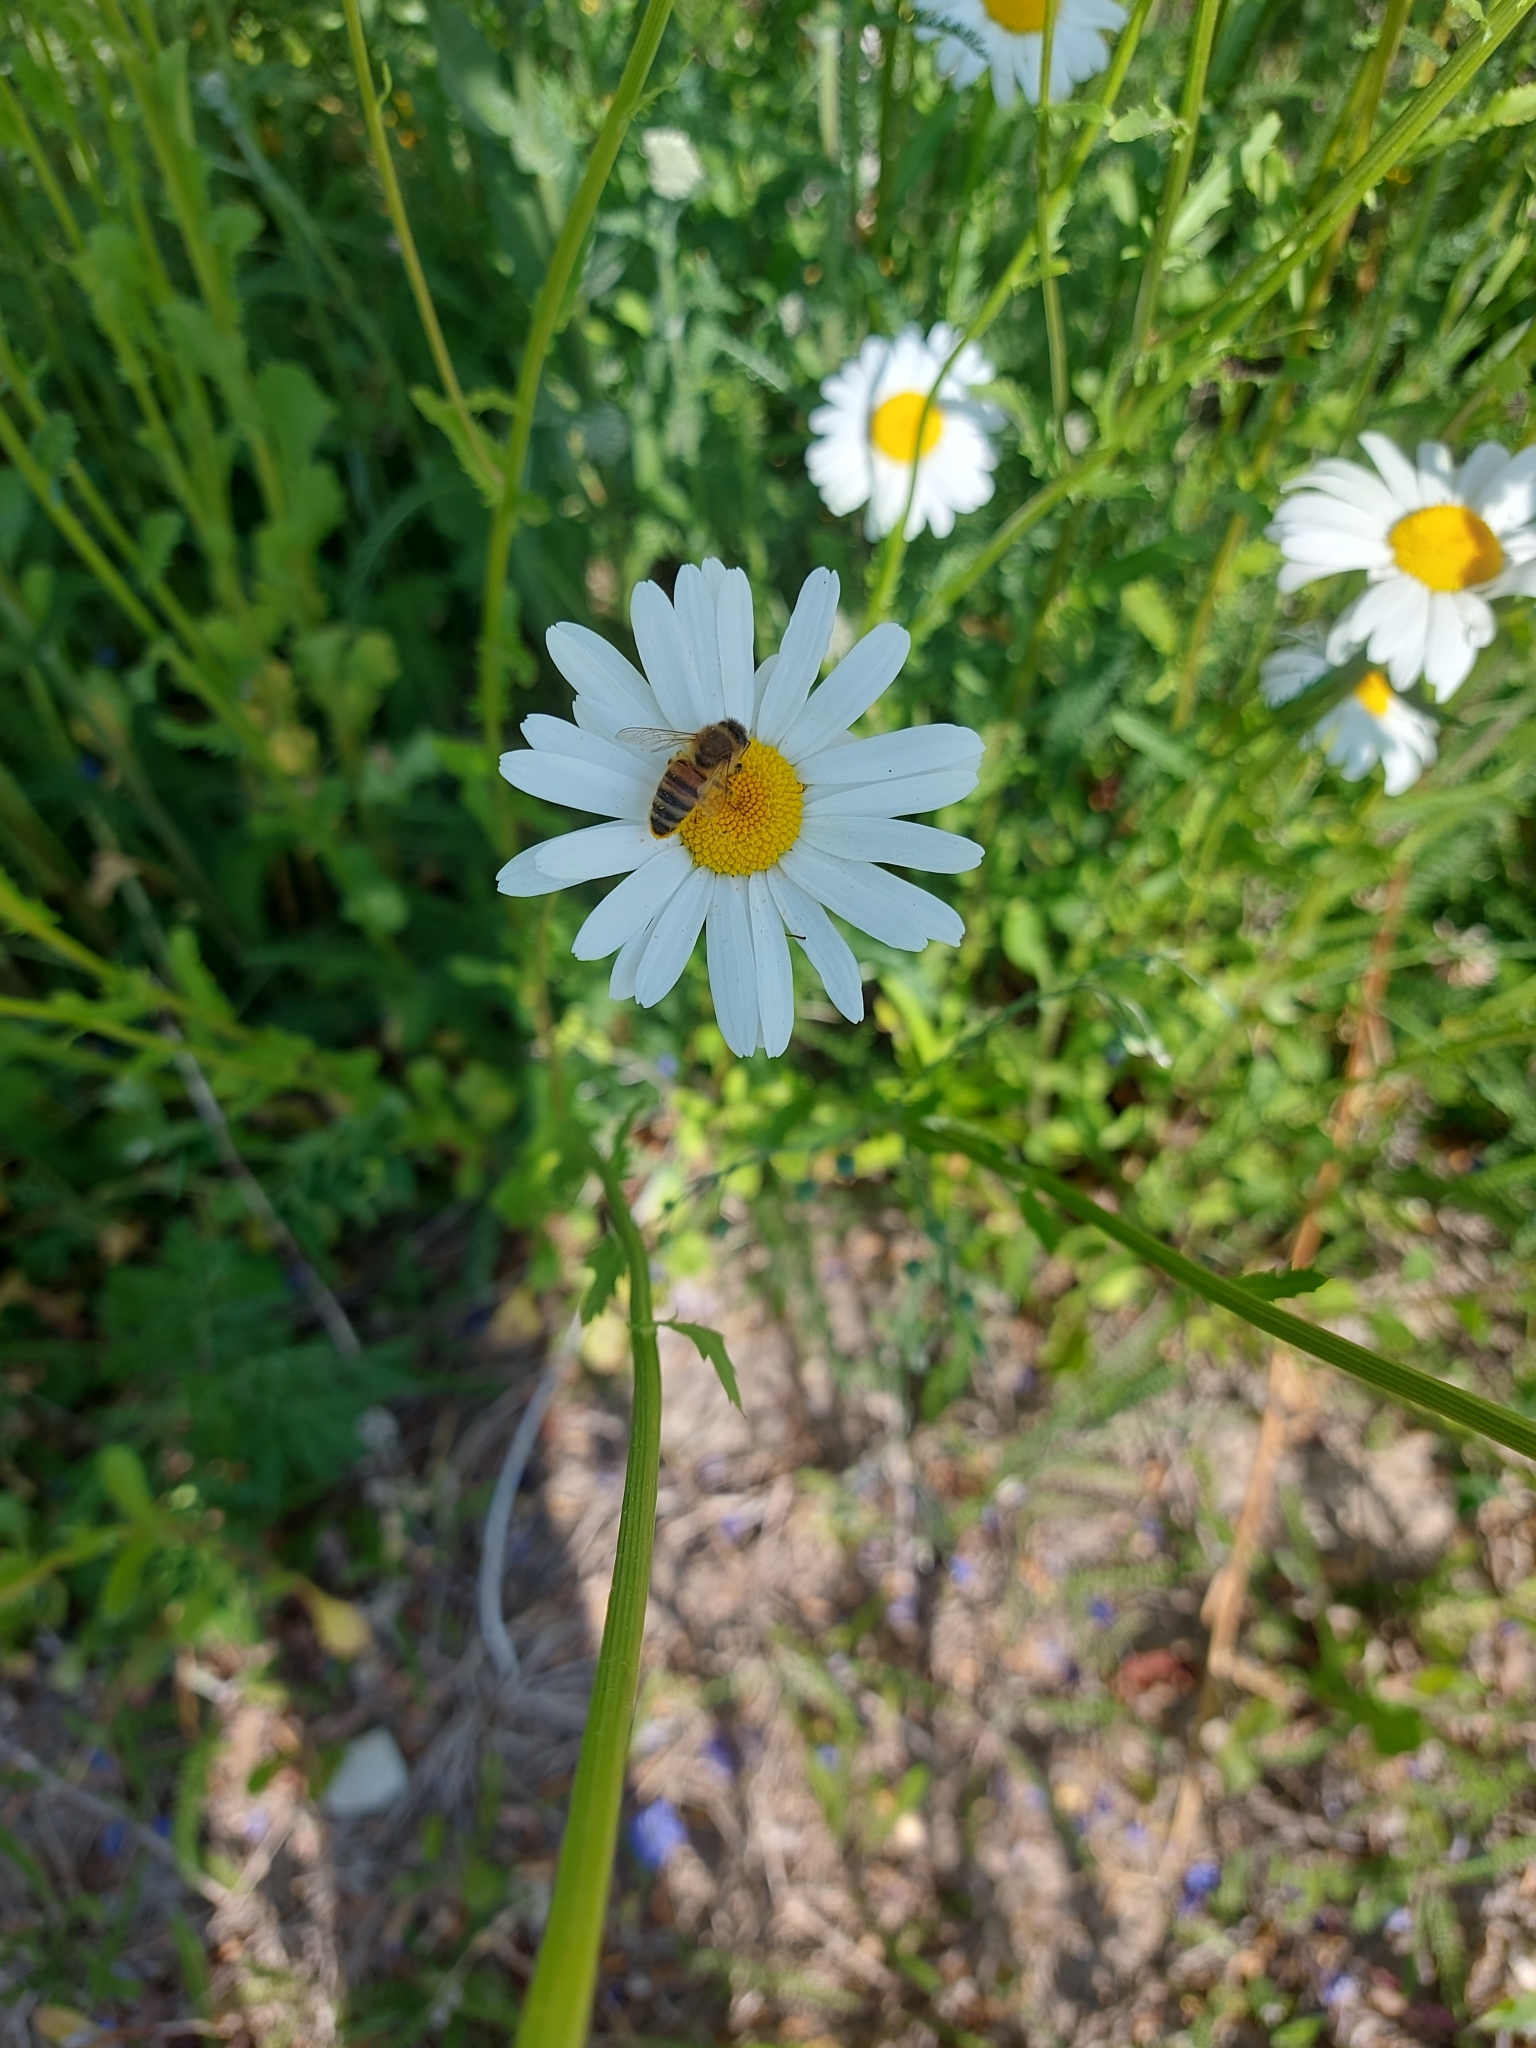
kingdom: Animalia
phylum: Arthropoda
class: Insecta
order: Hymenoptera
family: Apidae
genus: Apis
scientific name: Apis mellifera
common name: Honey bee
